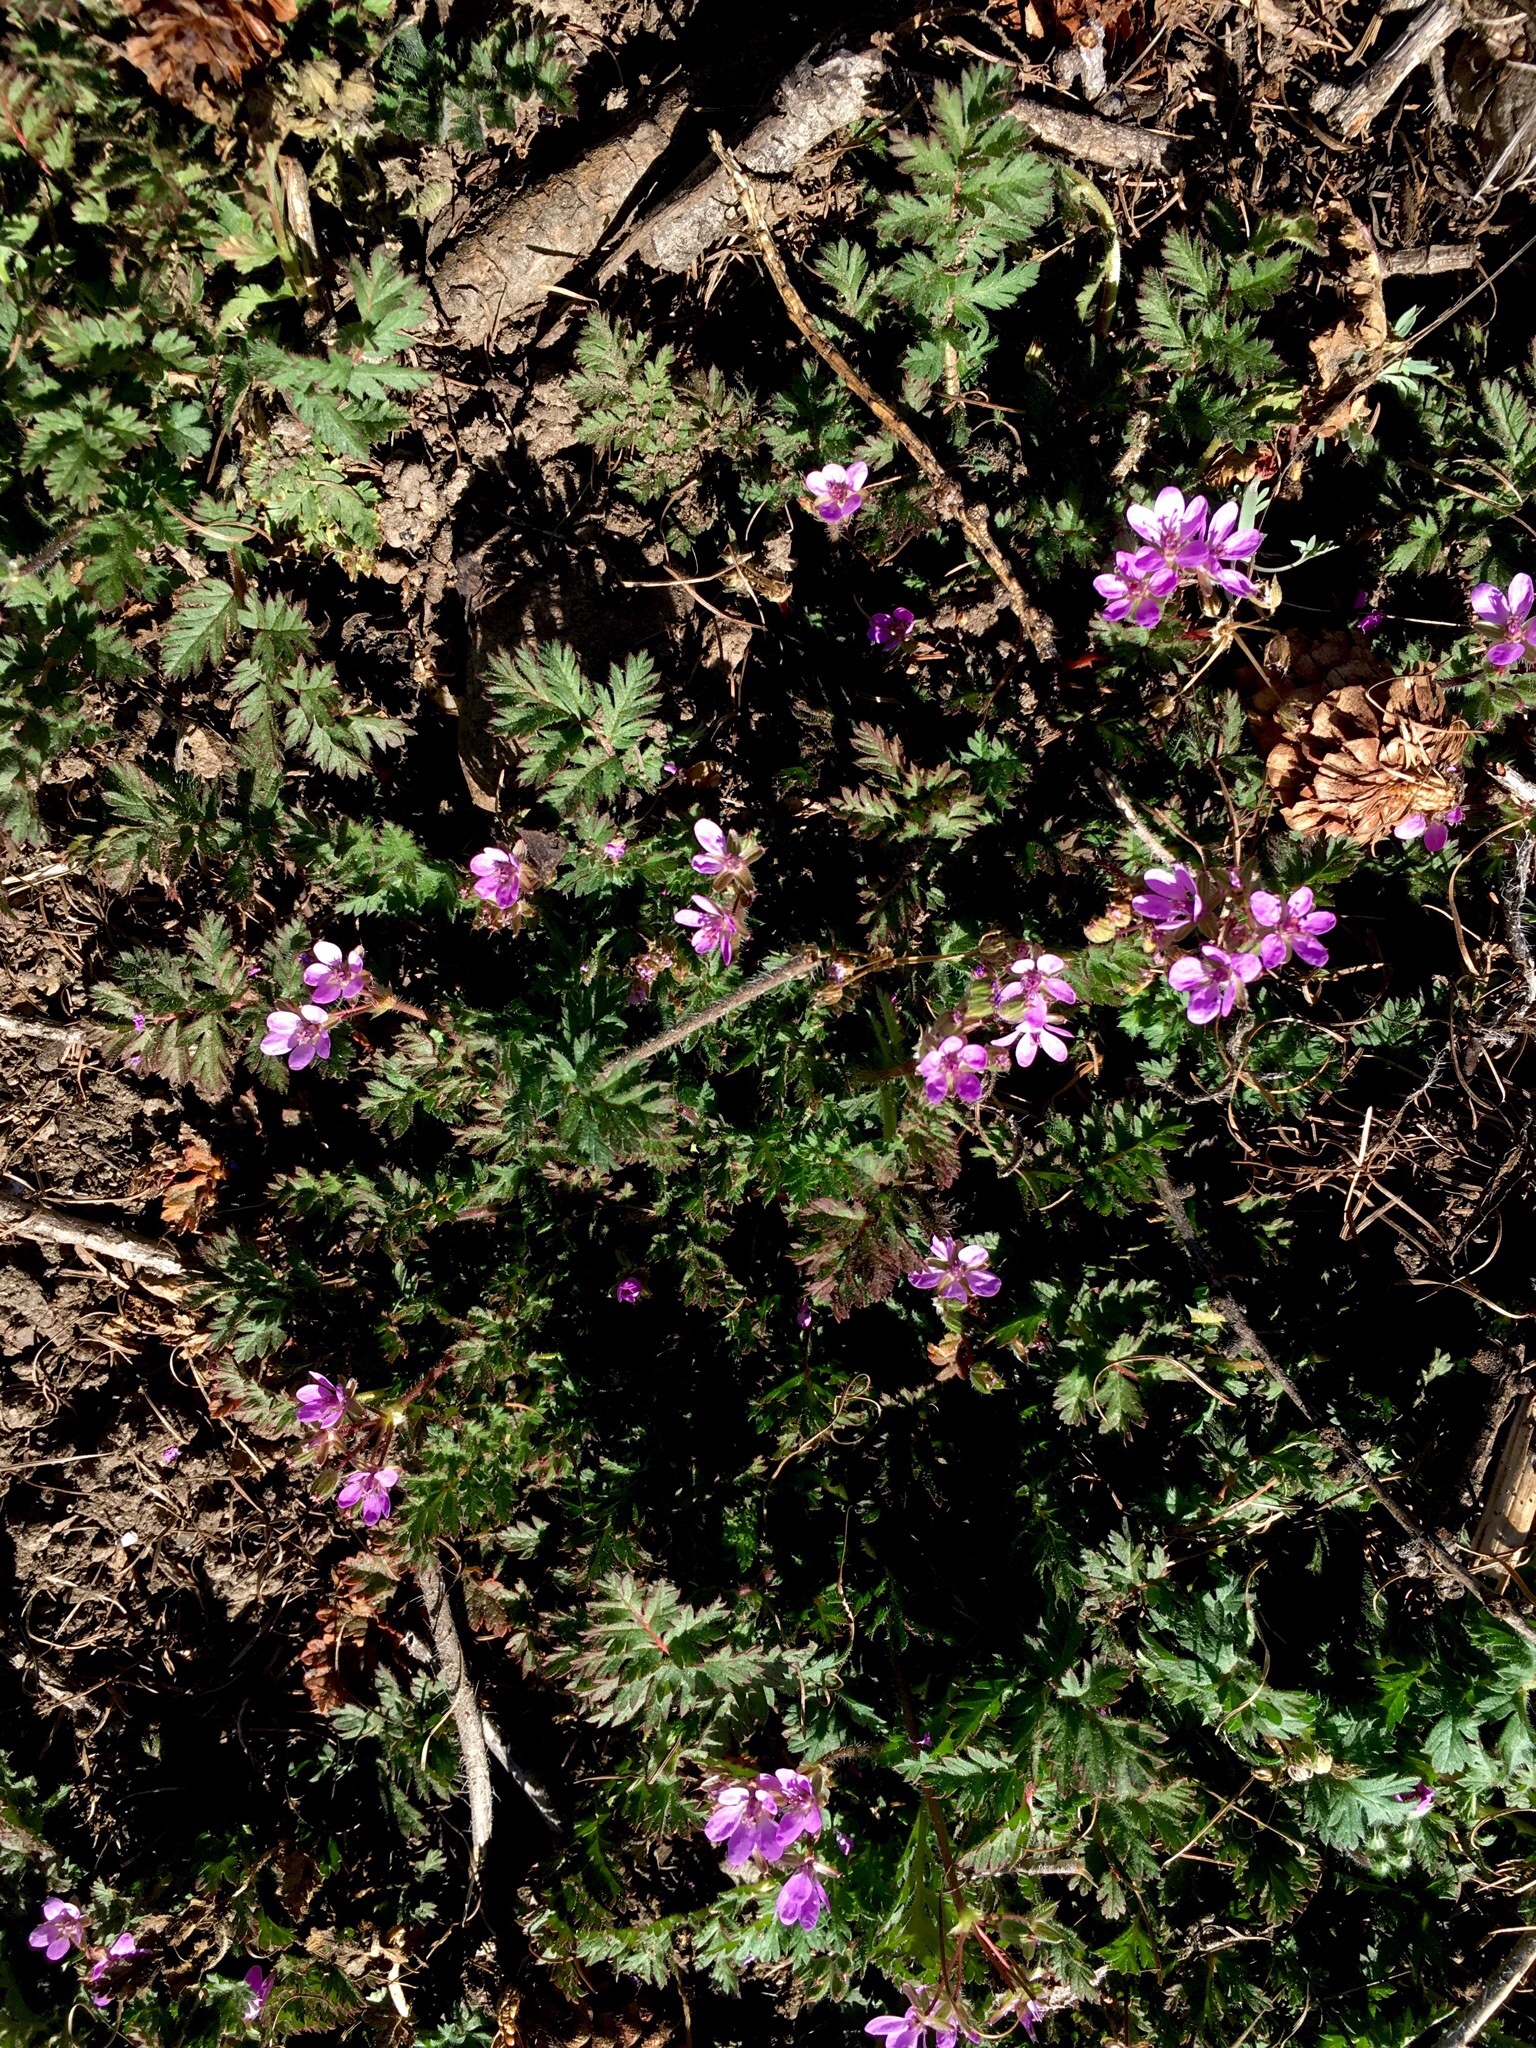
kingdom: Plantae
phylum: Tracheophyta
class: Magnoliopsida
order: Geraniales
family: Geraniaceae
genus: Erodium
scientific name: Erodium cicutarium
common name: Common stork's-bill
